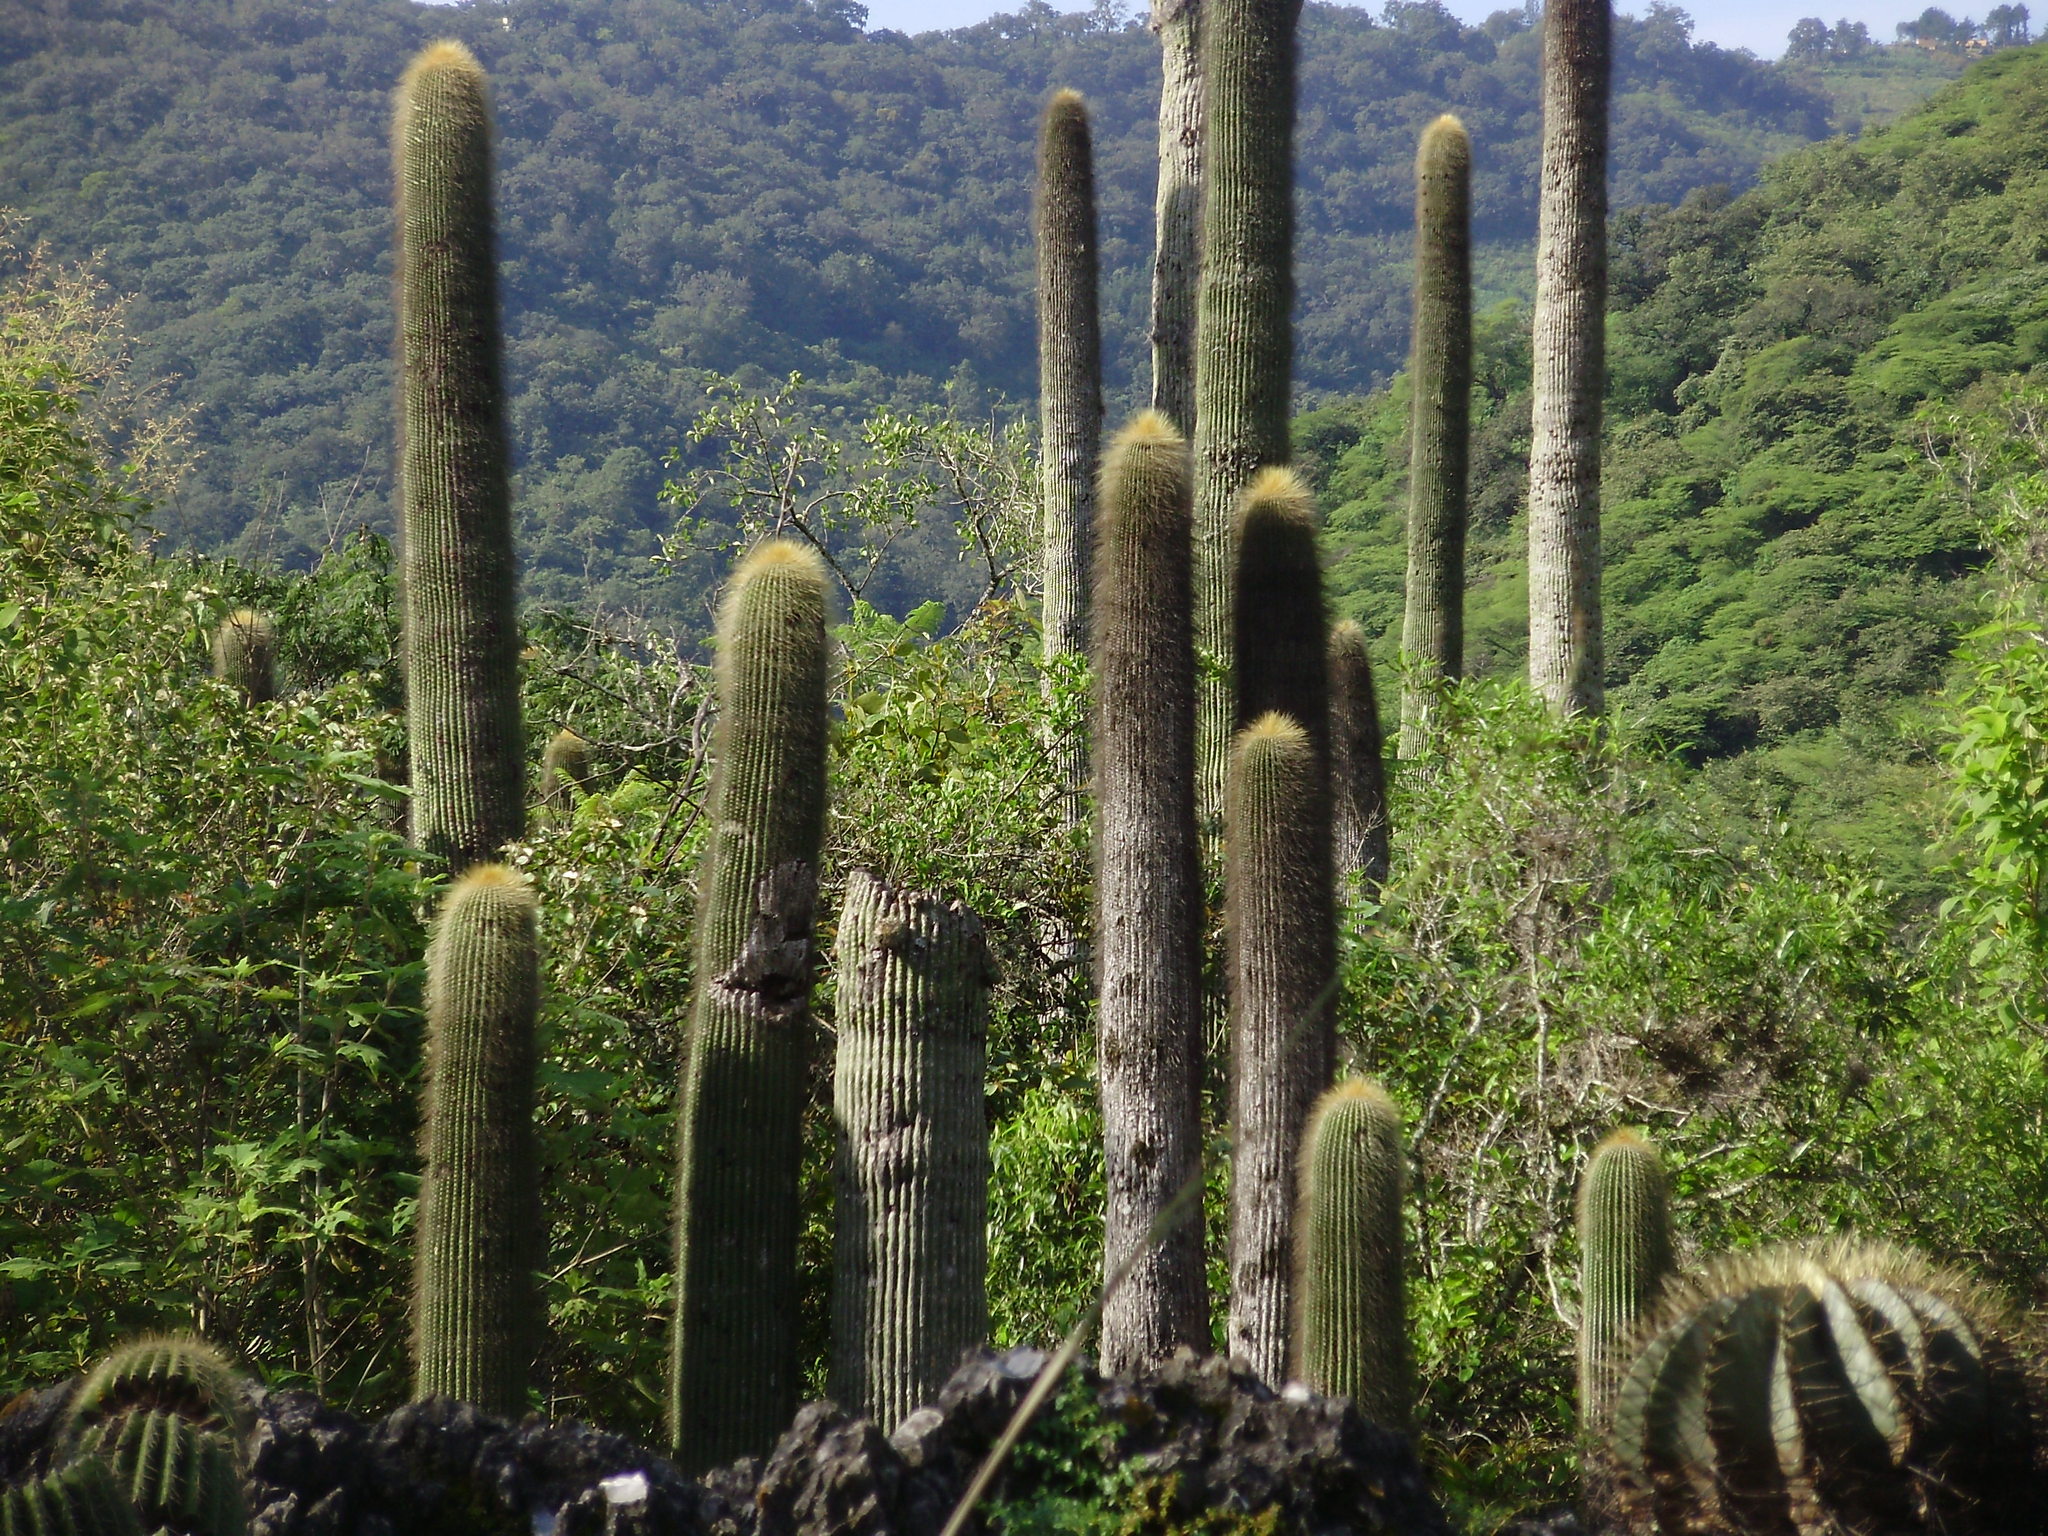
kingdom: Plantae
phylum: Tracheophyta
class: Magnoliopsida
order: Caryophyllales
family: Cactaceae
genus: Cephalocereus
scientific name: Cephalocereus polylophus
